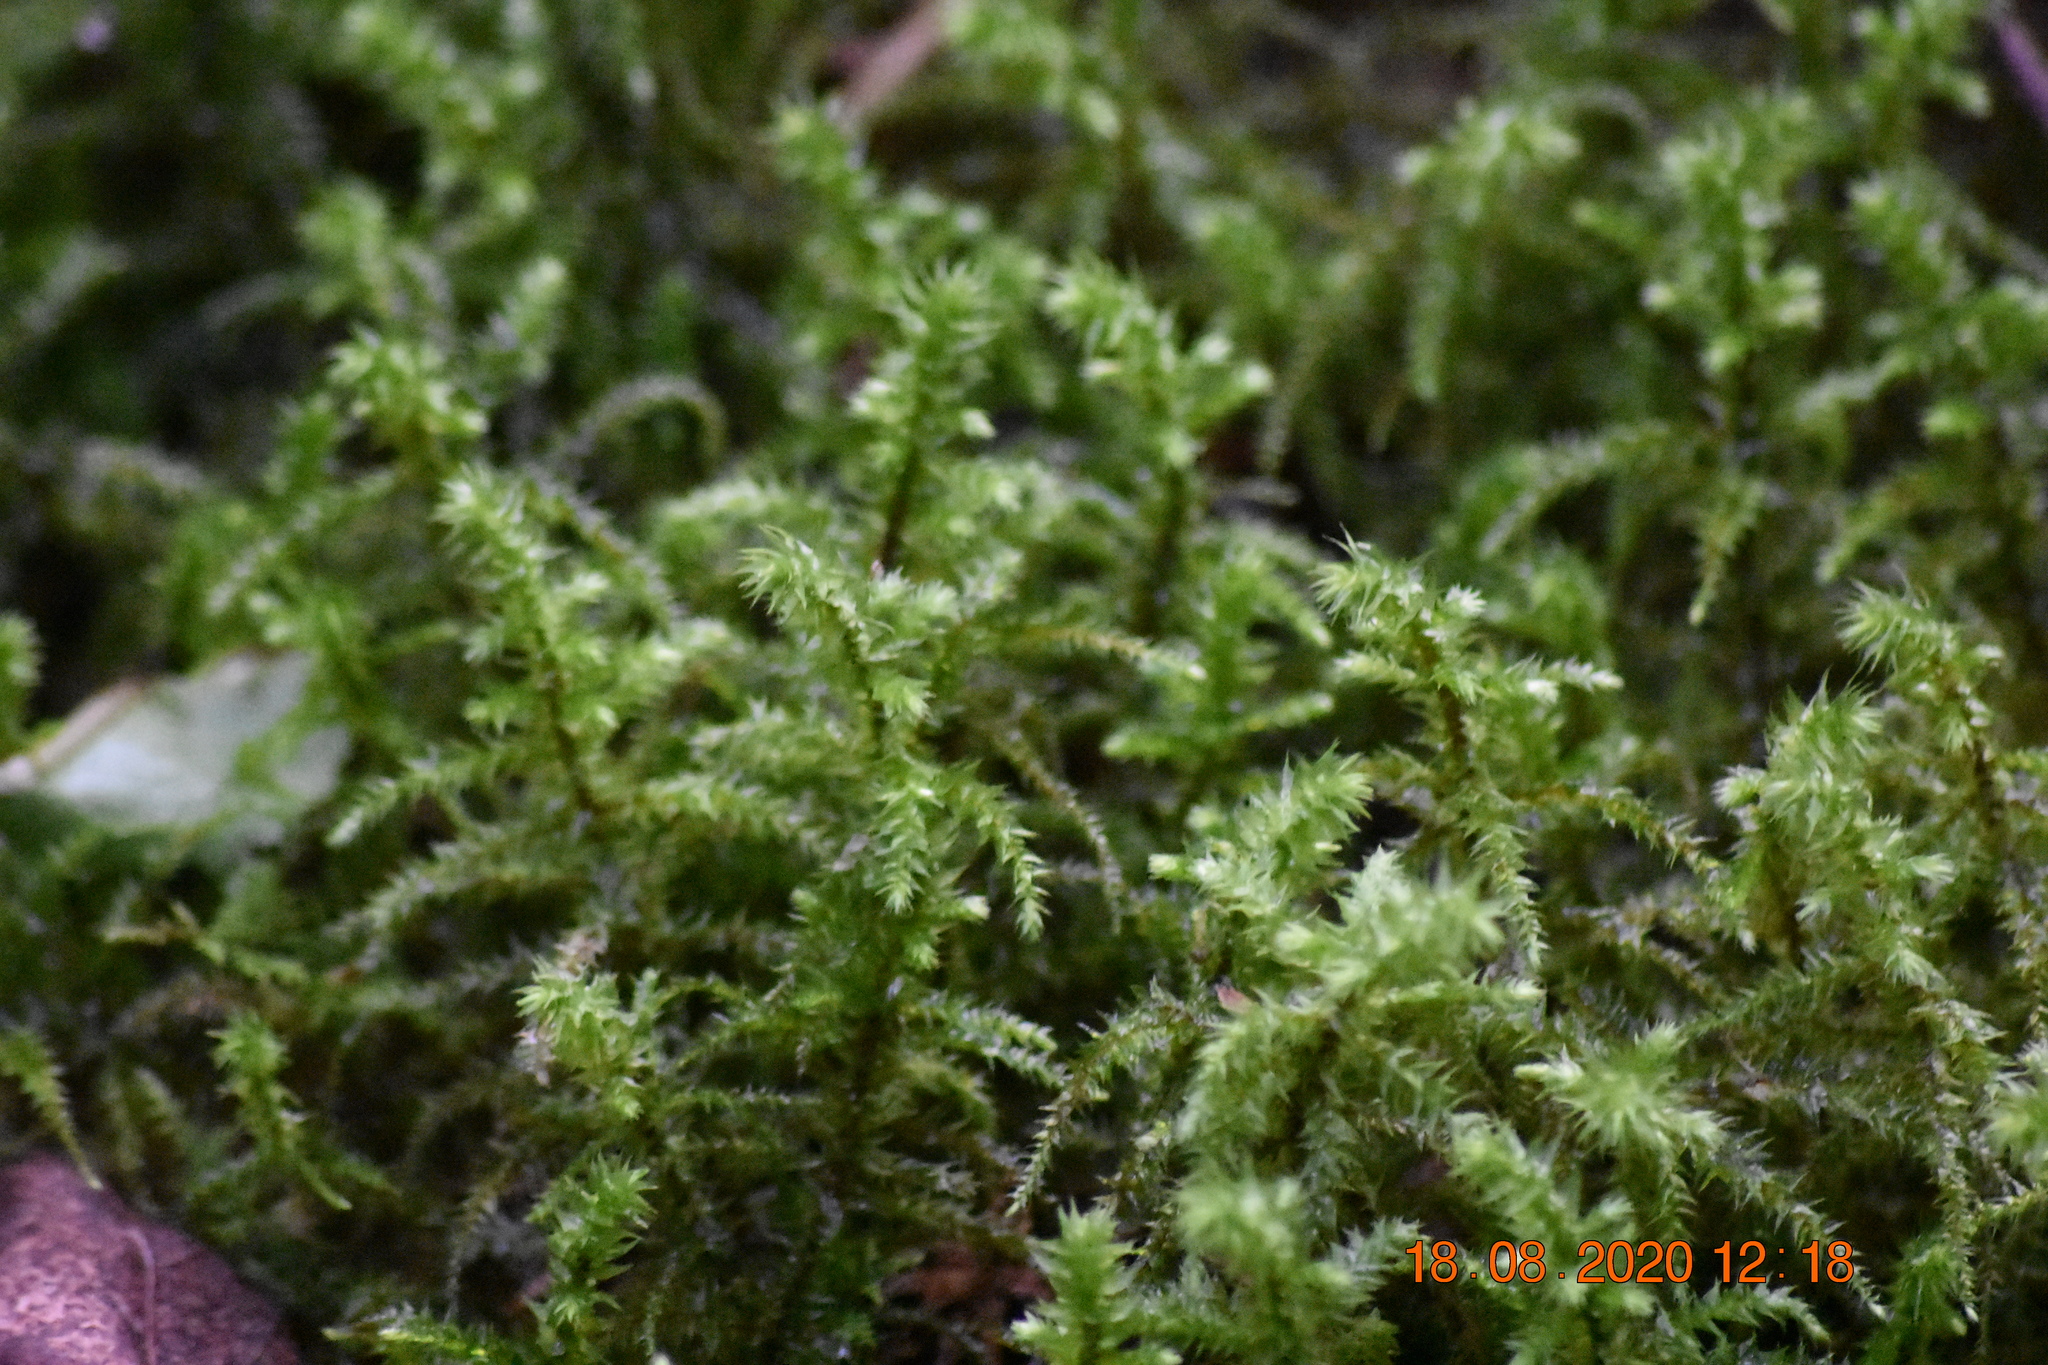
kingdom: Plantae
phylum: Bryophyta
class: Bryopsida
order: Hypnales
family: Hylocomiaceae
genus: Hylocomiadelphus
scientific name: Hylocomiadelphus triquetrus
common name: Rough goose neck moss
